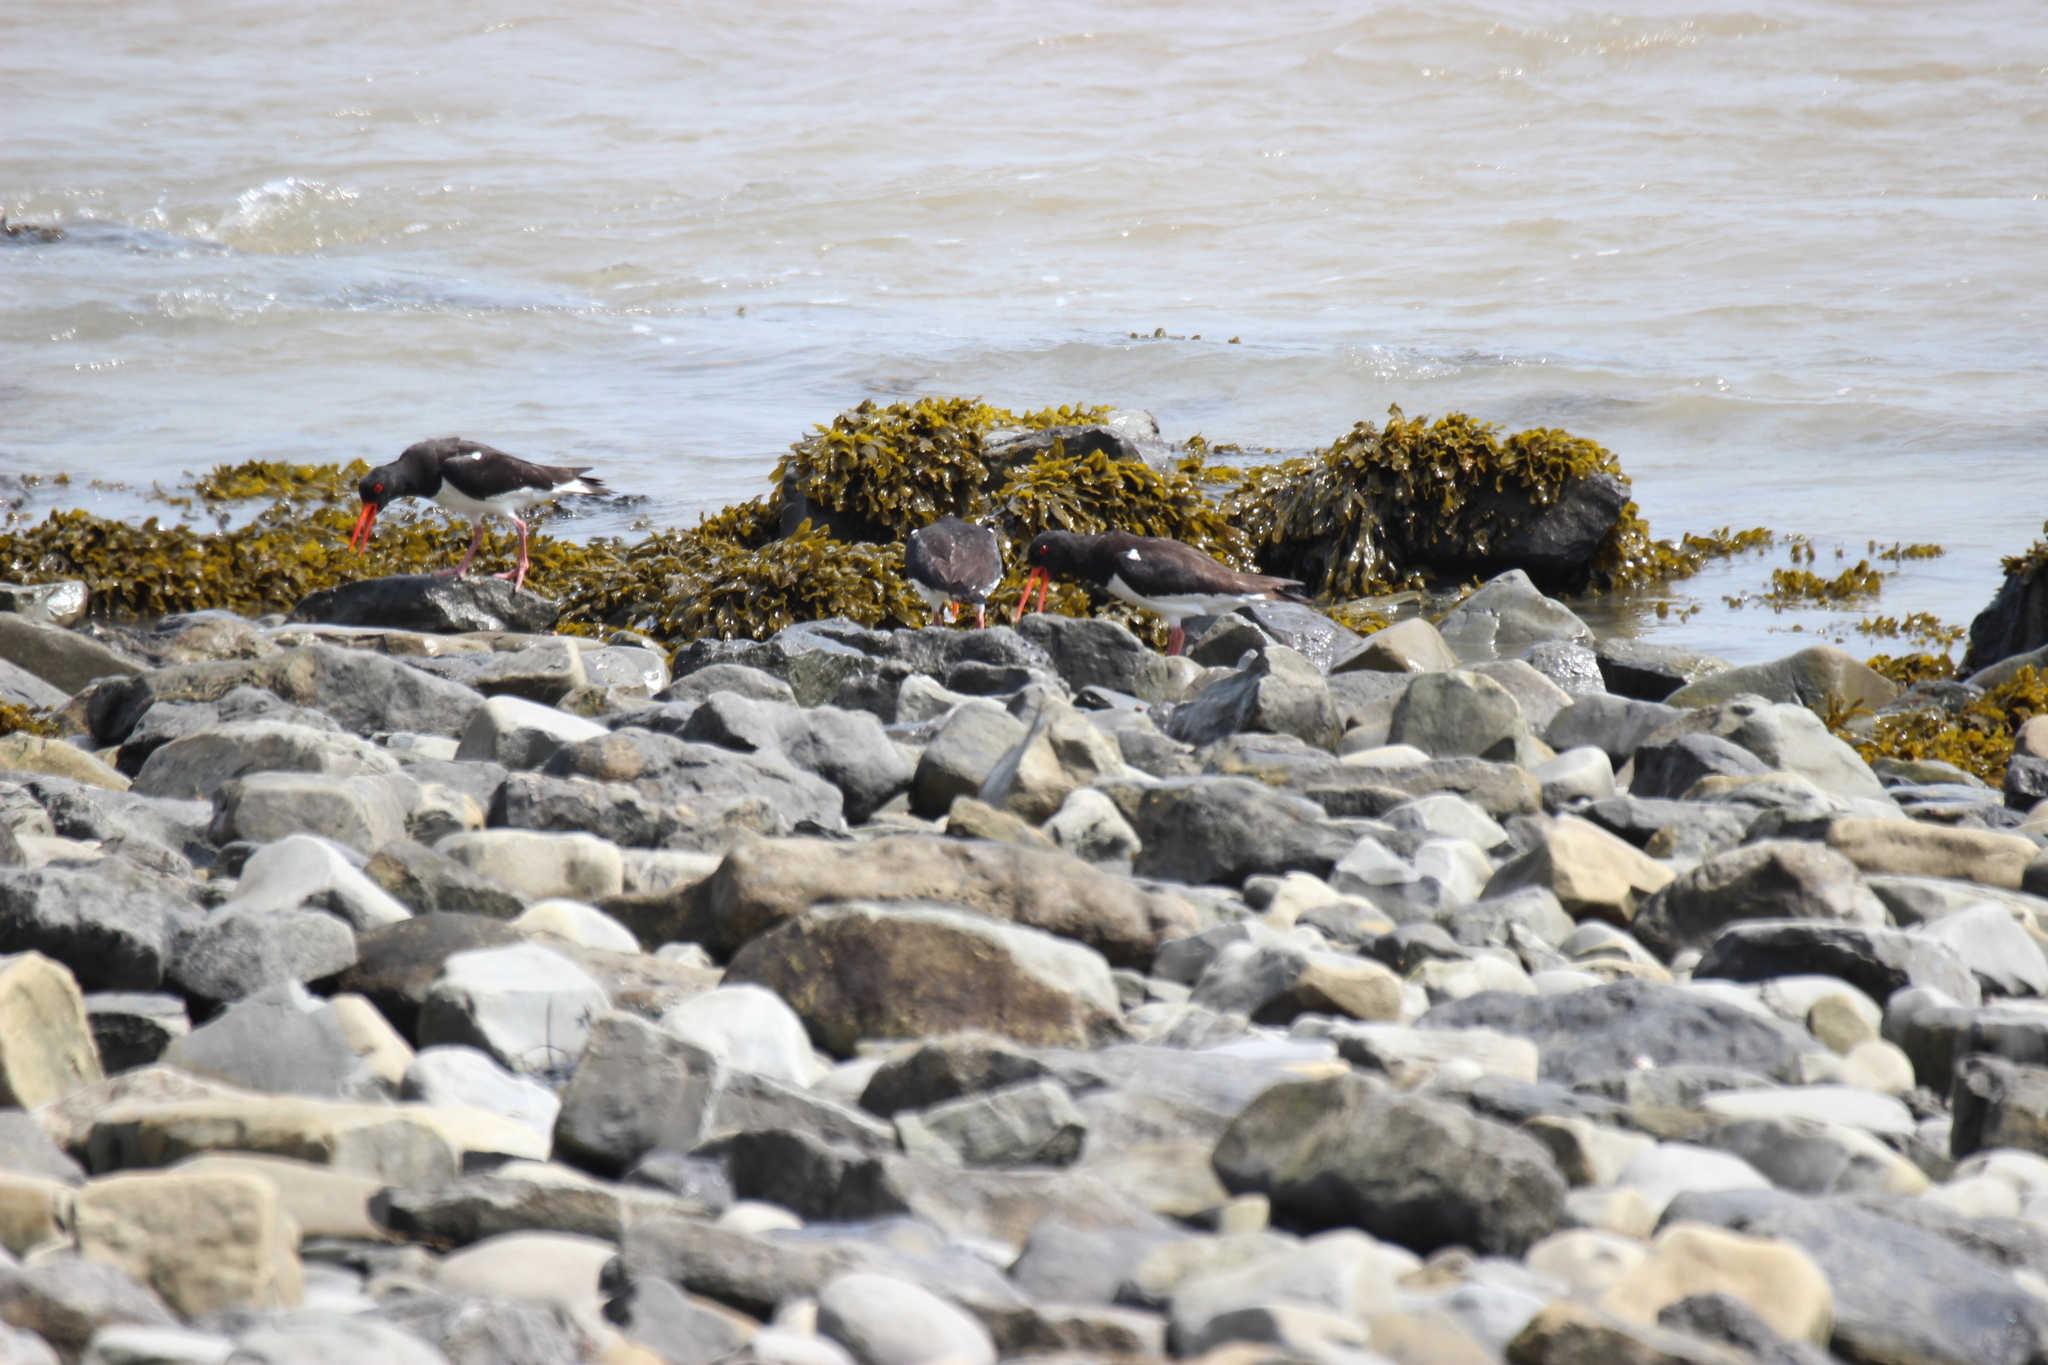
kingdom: Animalia
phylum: Chordata
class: Aves
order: Charadriiformes
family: Haematopodidae
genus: Haematopus
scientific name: Haematopus ostralegus
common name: Eurasian oystercatcher
